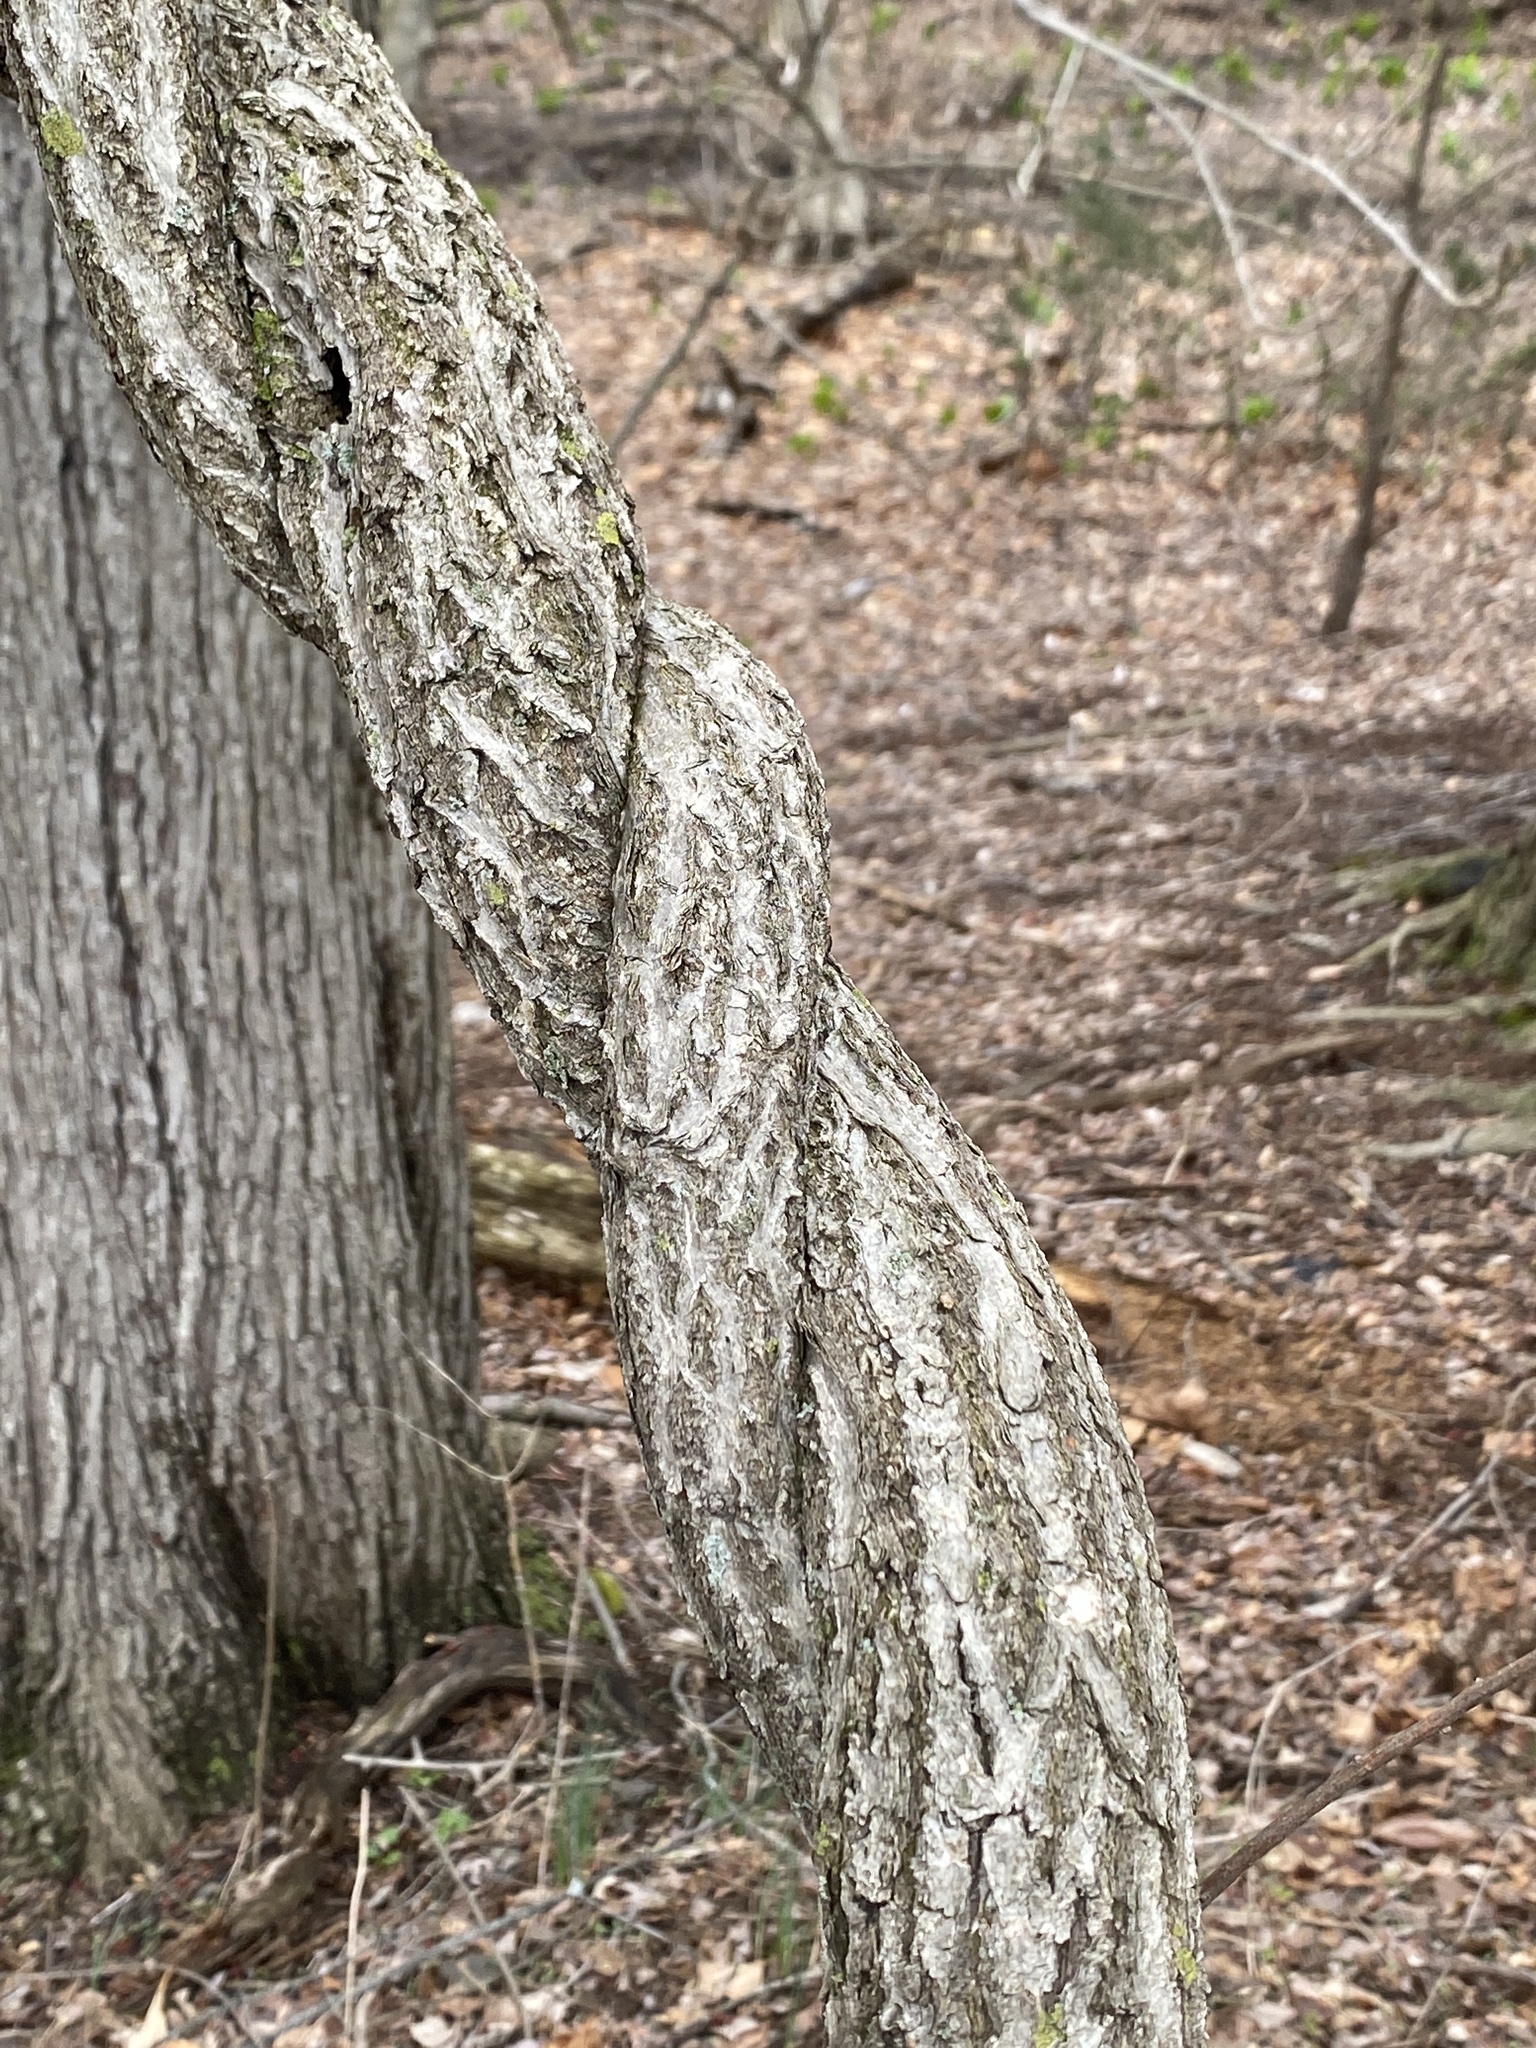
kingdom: Plantae
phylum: Tracheophyta
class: Magnoliopsida
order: Celastrales
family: Celastraceae
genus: Celastrus
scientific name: Celastrus orbiculatus
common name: Oriental bittersweet
